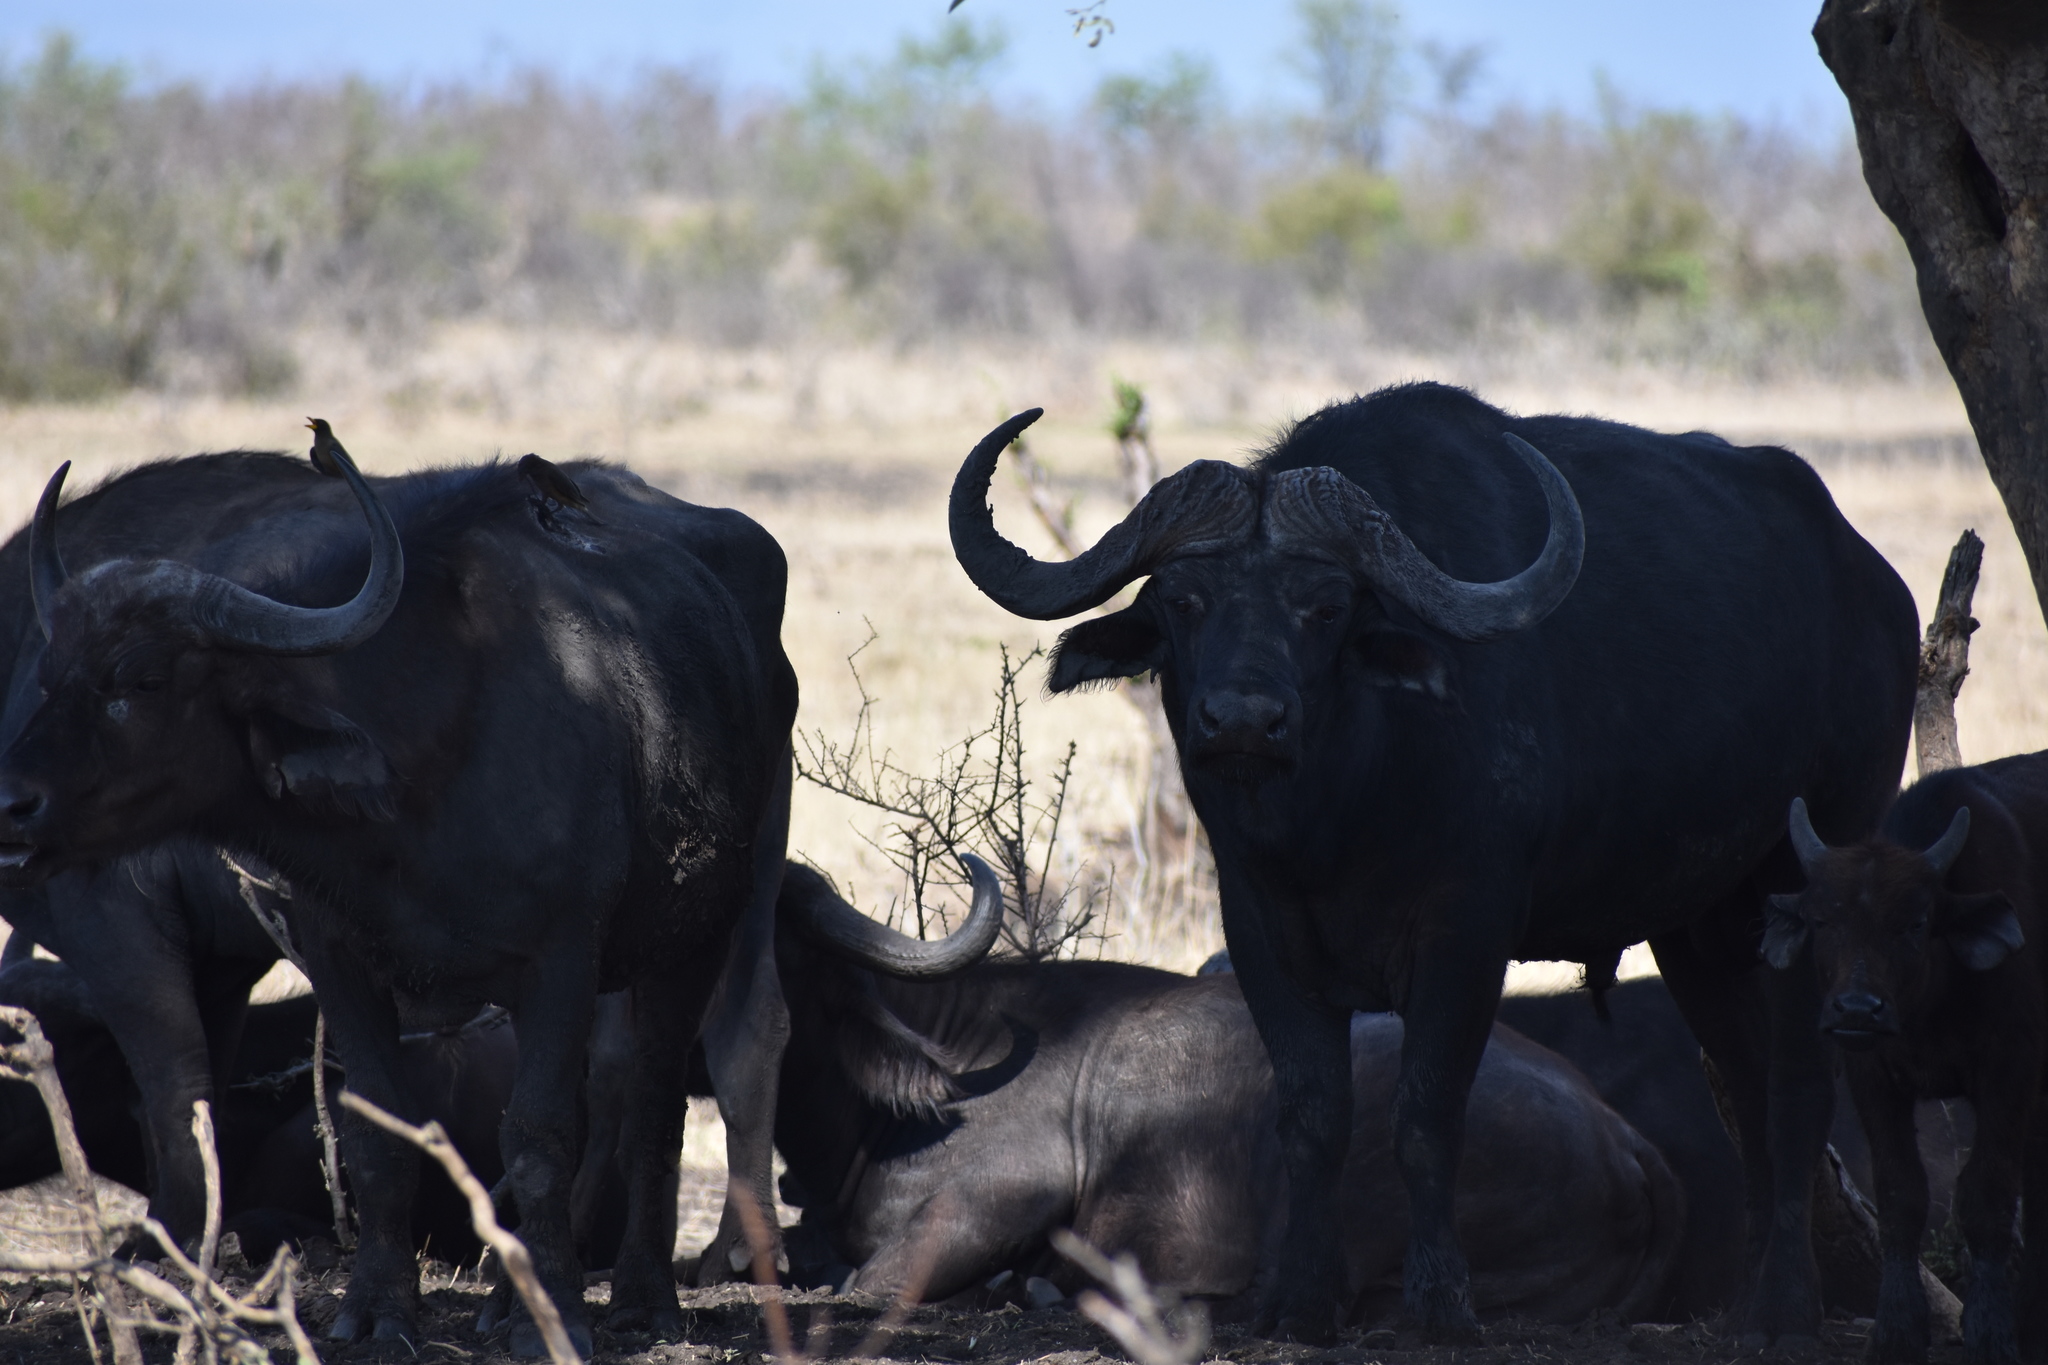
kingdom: Animalia
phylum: Chordata
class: Mammalia
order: Artiodactyla
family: Bovidae
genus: Syncerus
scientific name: Syncerus caffer
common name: African buffalo
